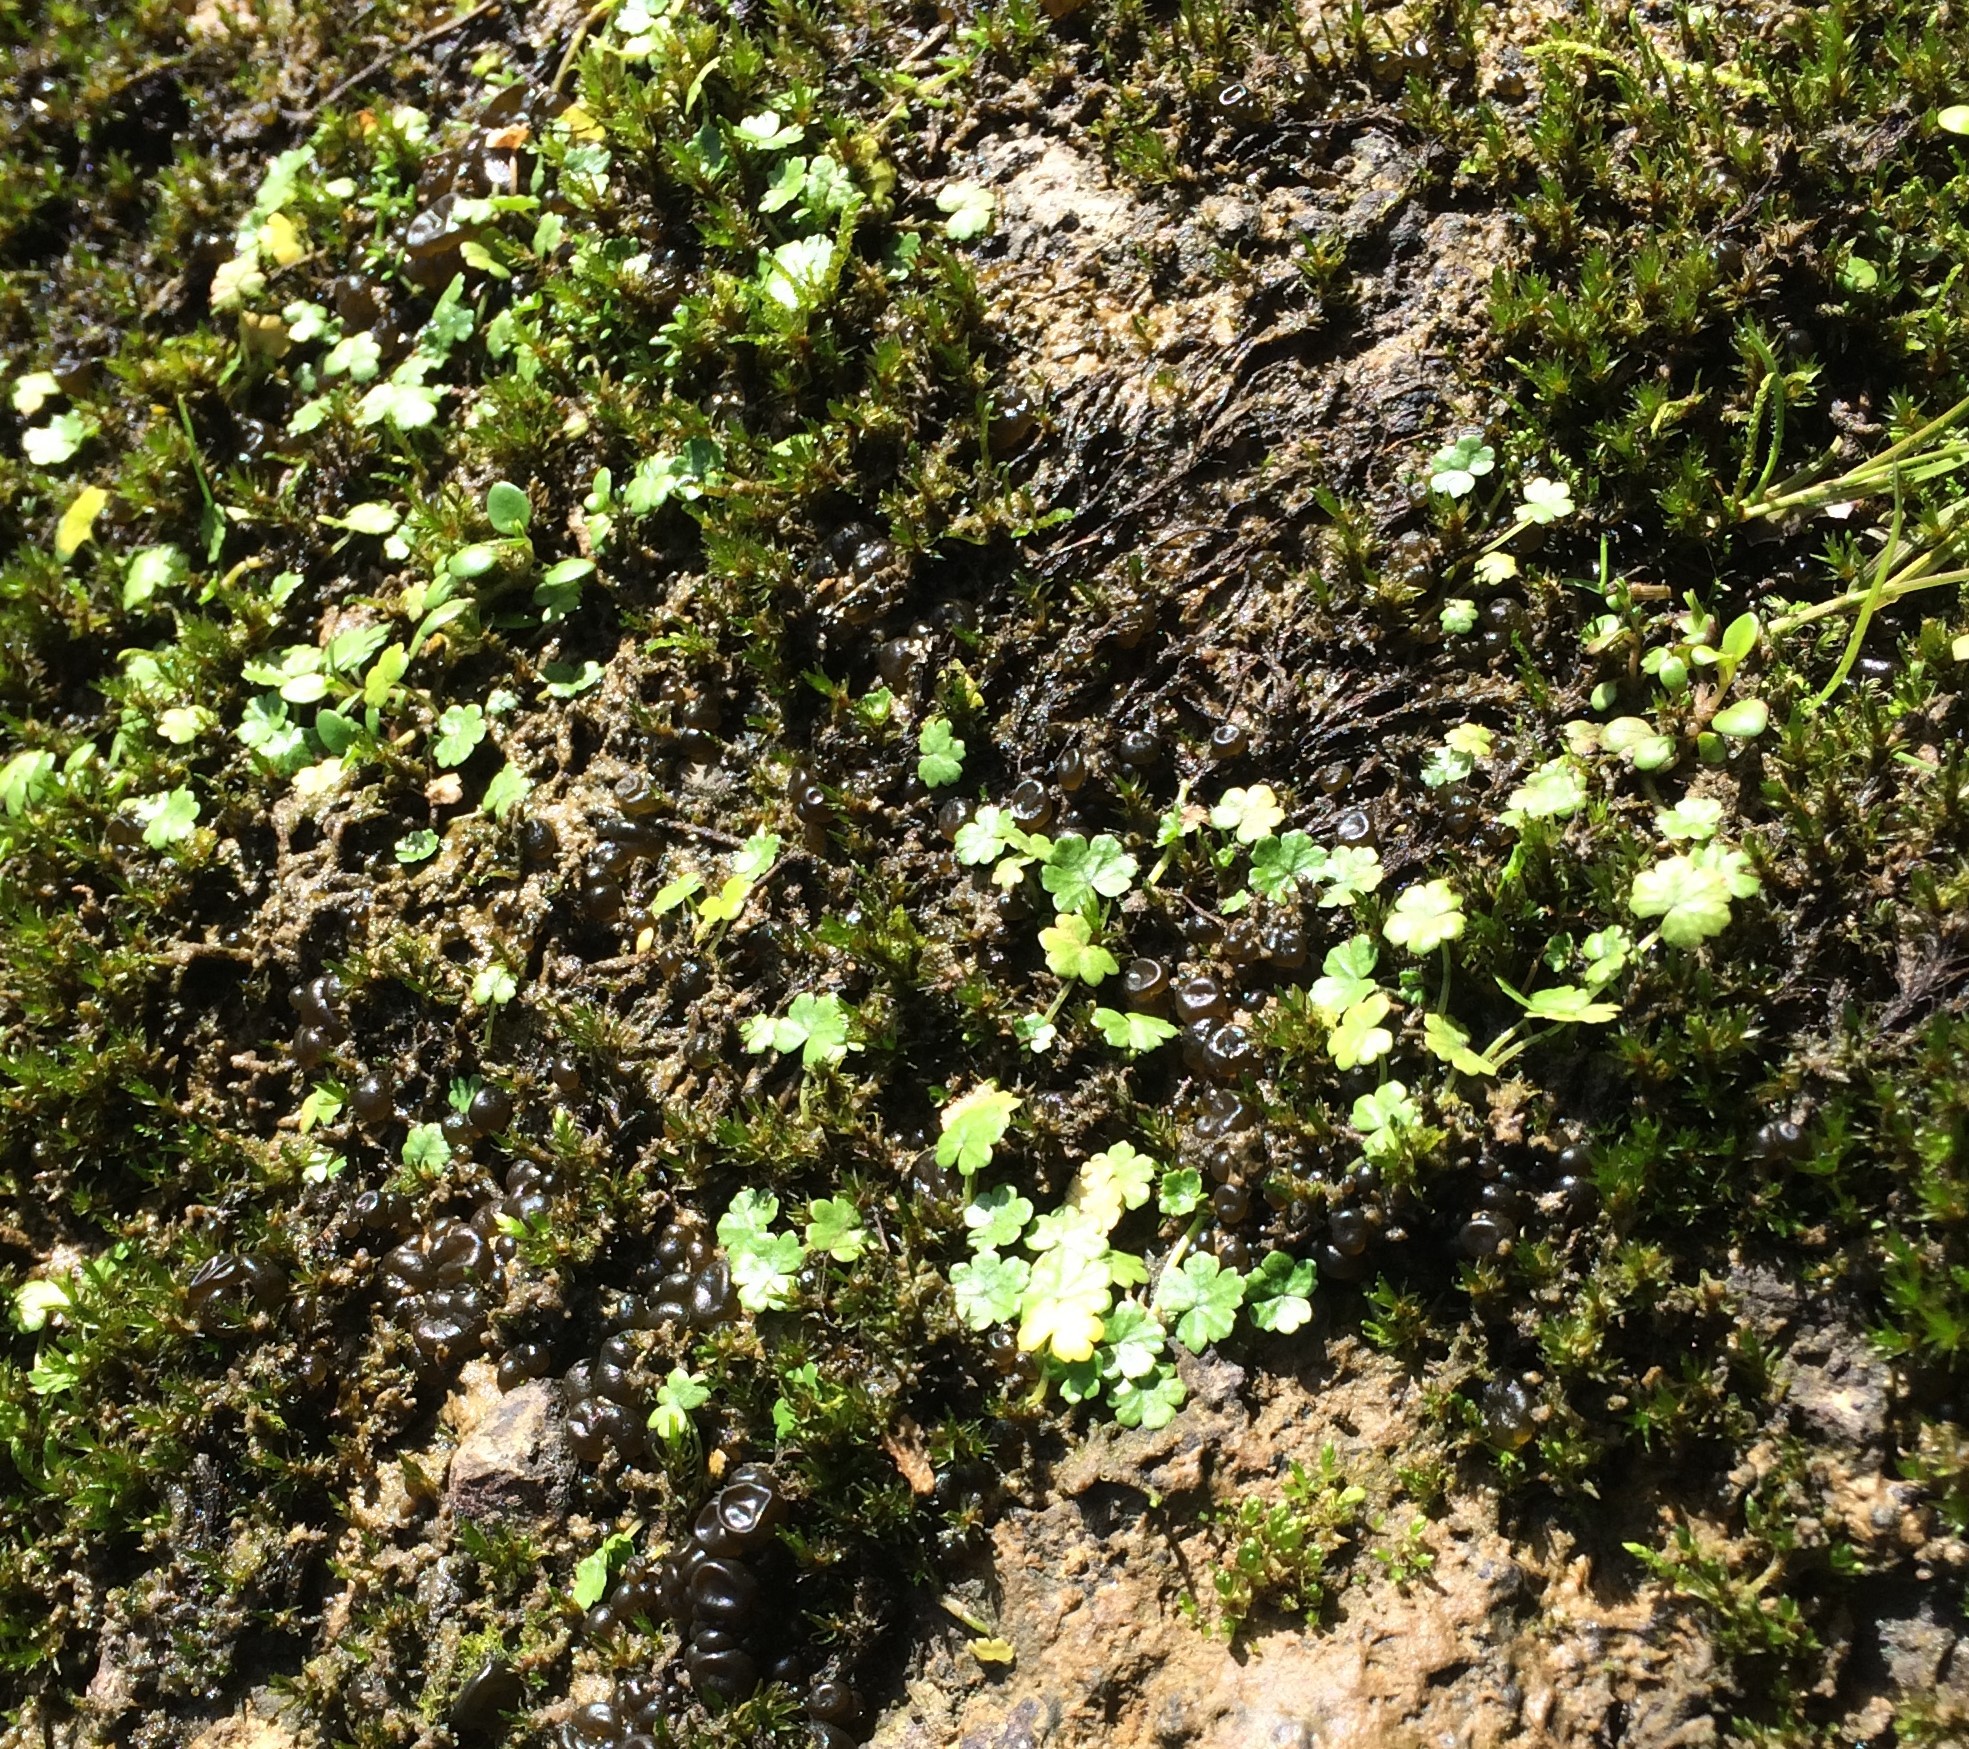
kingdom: Plantae
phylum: Tracheophyta
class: Magnoliopsida
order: Apiales
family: Araliaceae
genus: Hydrocotyle
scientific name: Hydrocotyle microphylla
